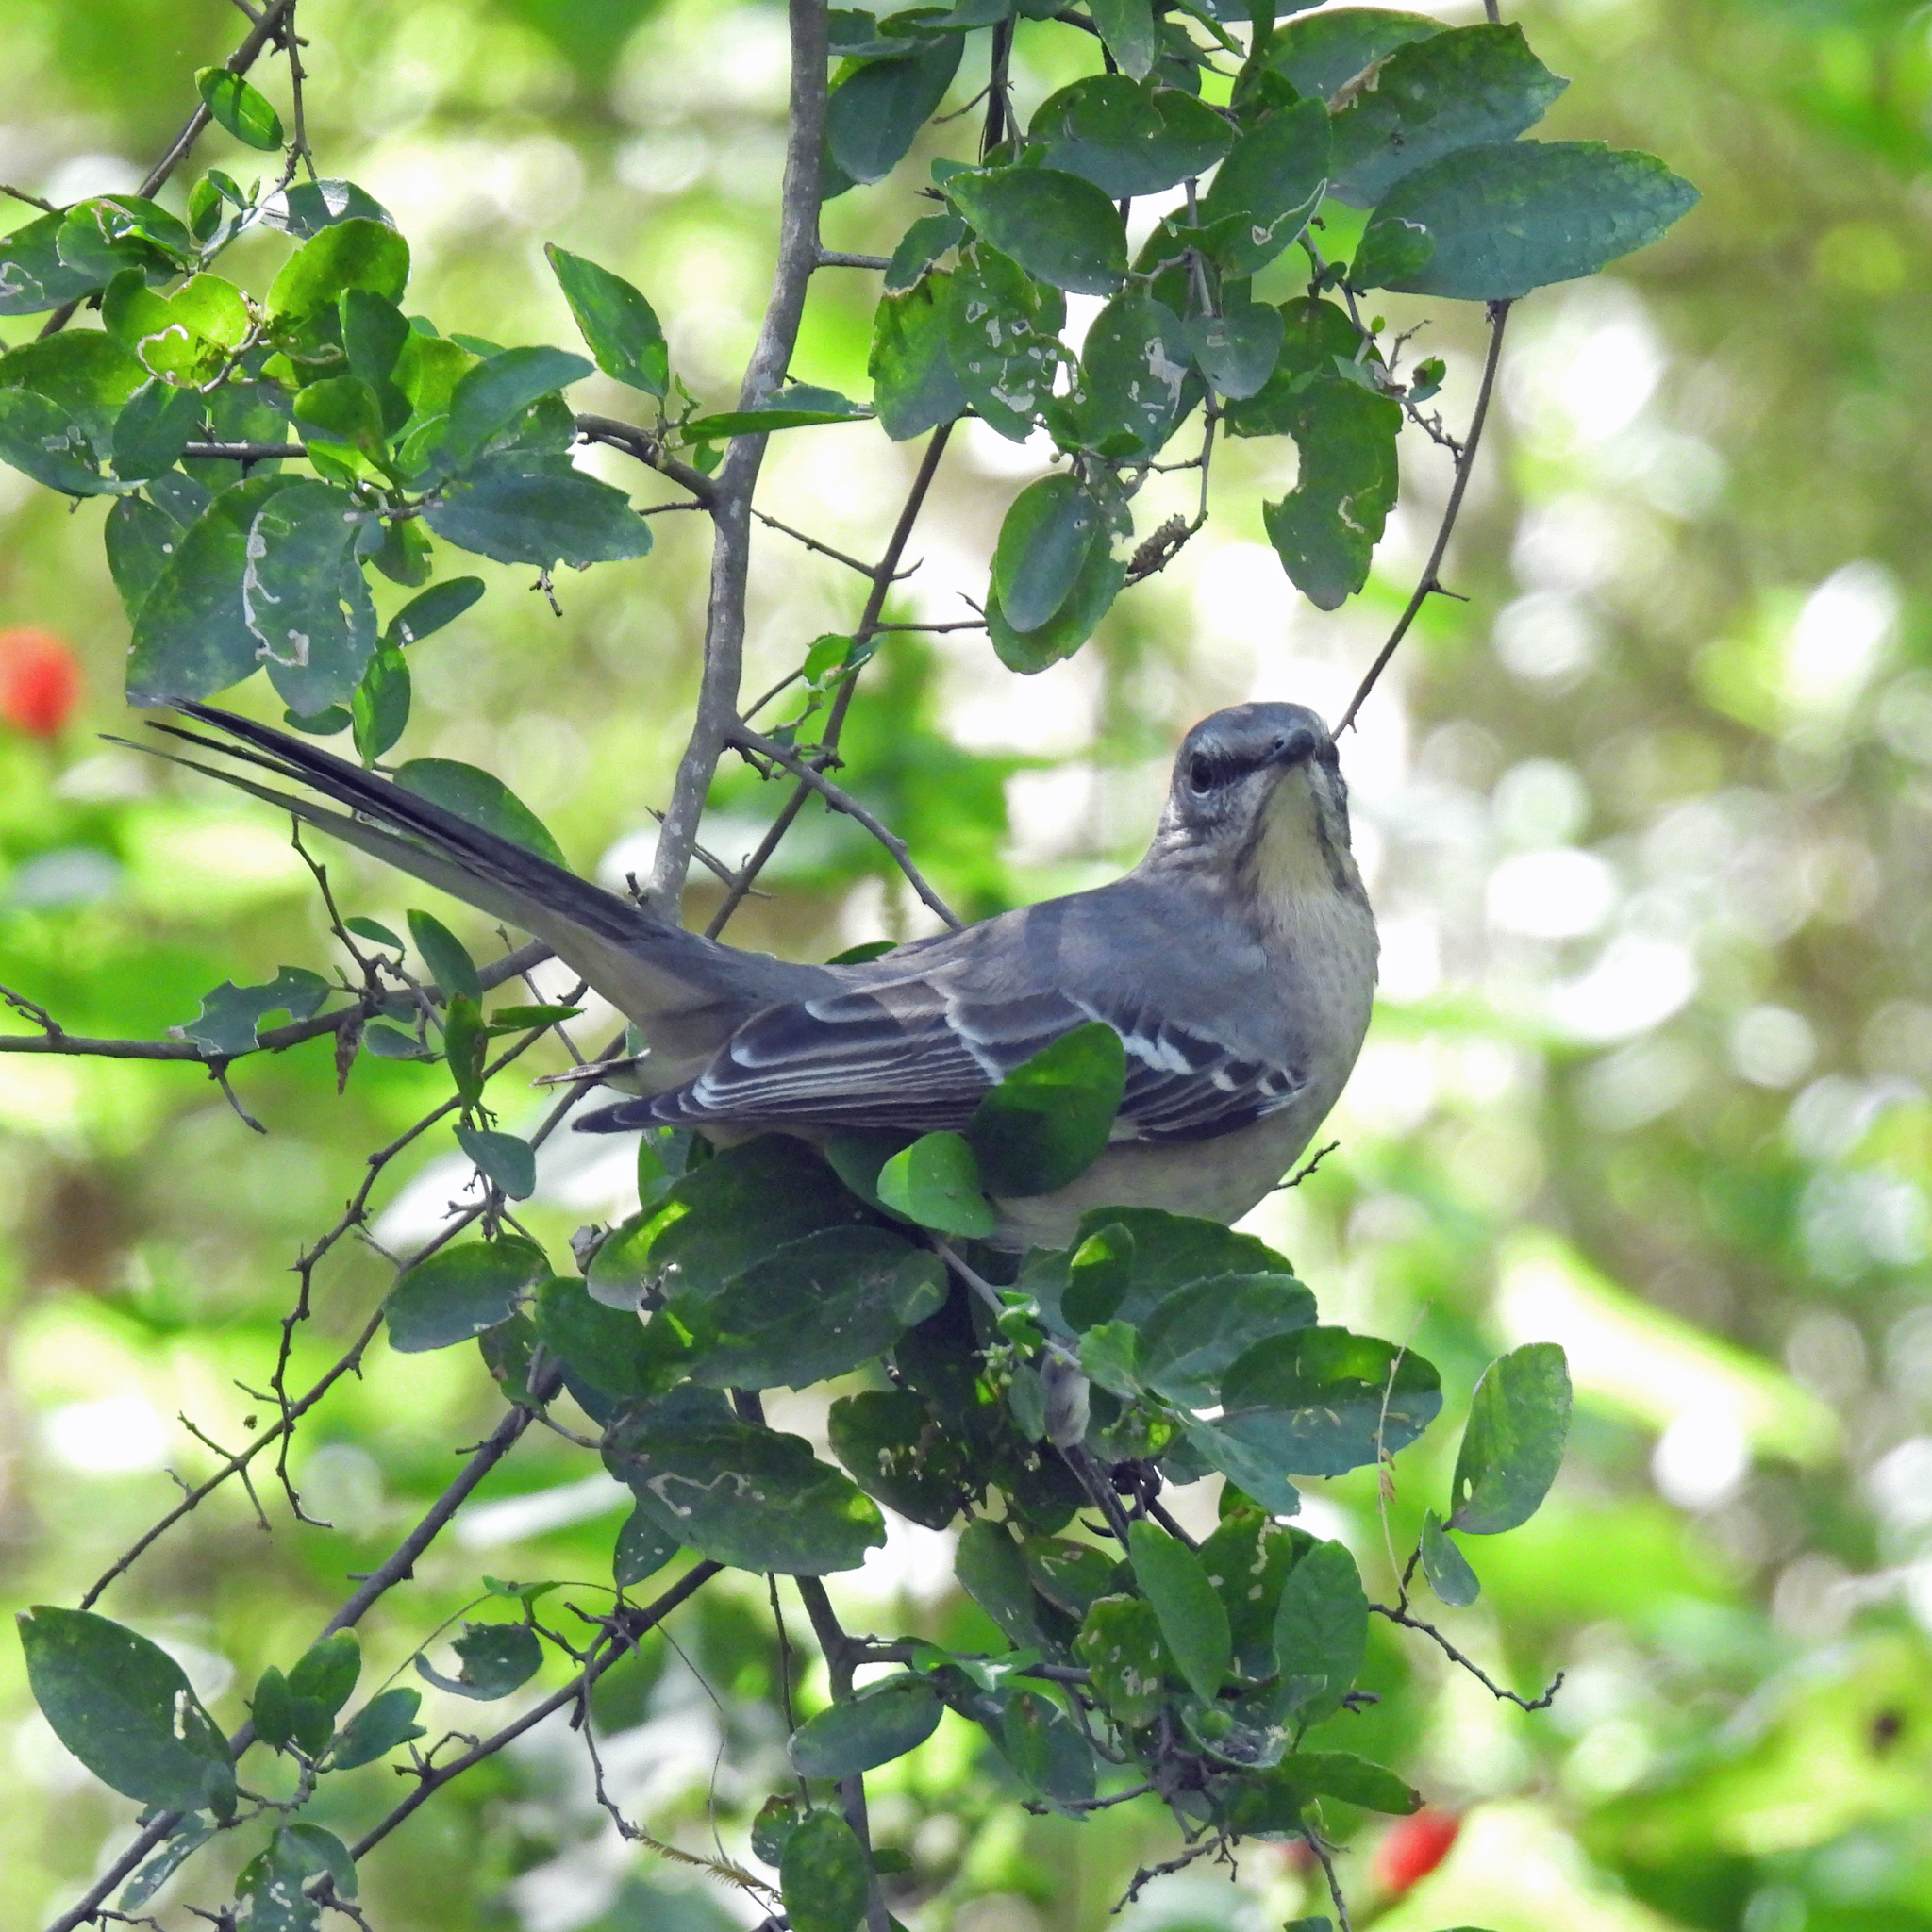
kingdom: Animalia
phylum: Chordata
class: Aves
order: Passeriformes
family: Mimidae
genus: Mimus
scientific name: Mimus polyglottos
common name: Northern mockingbird
